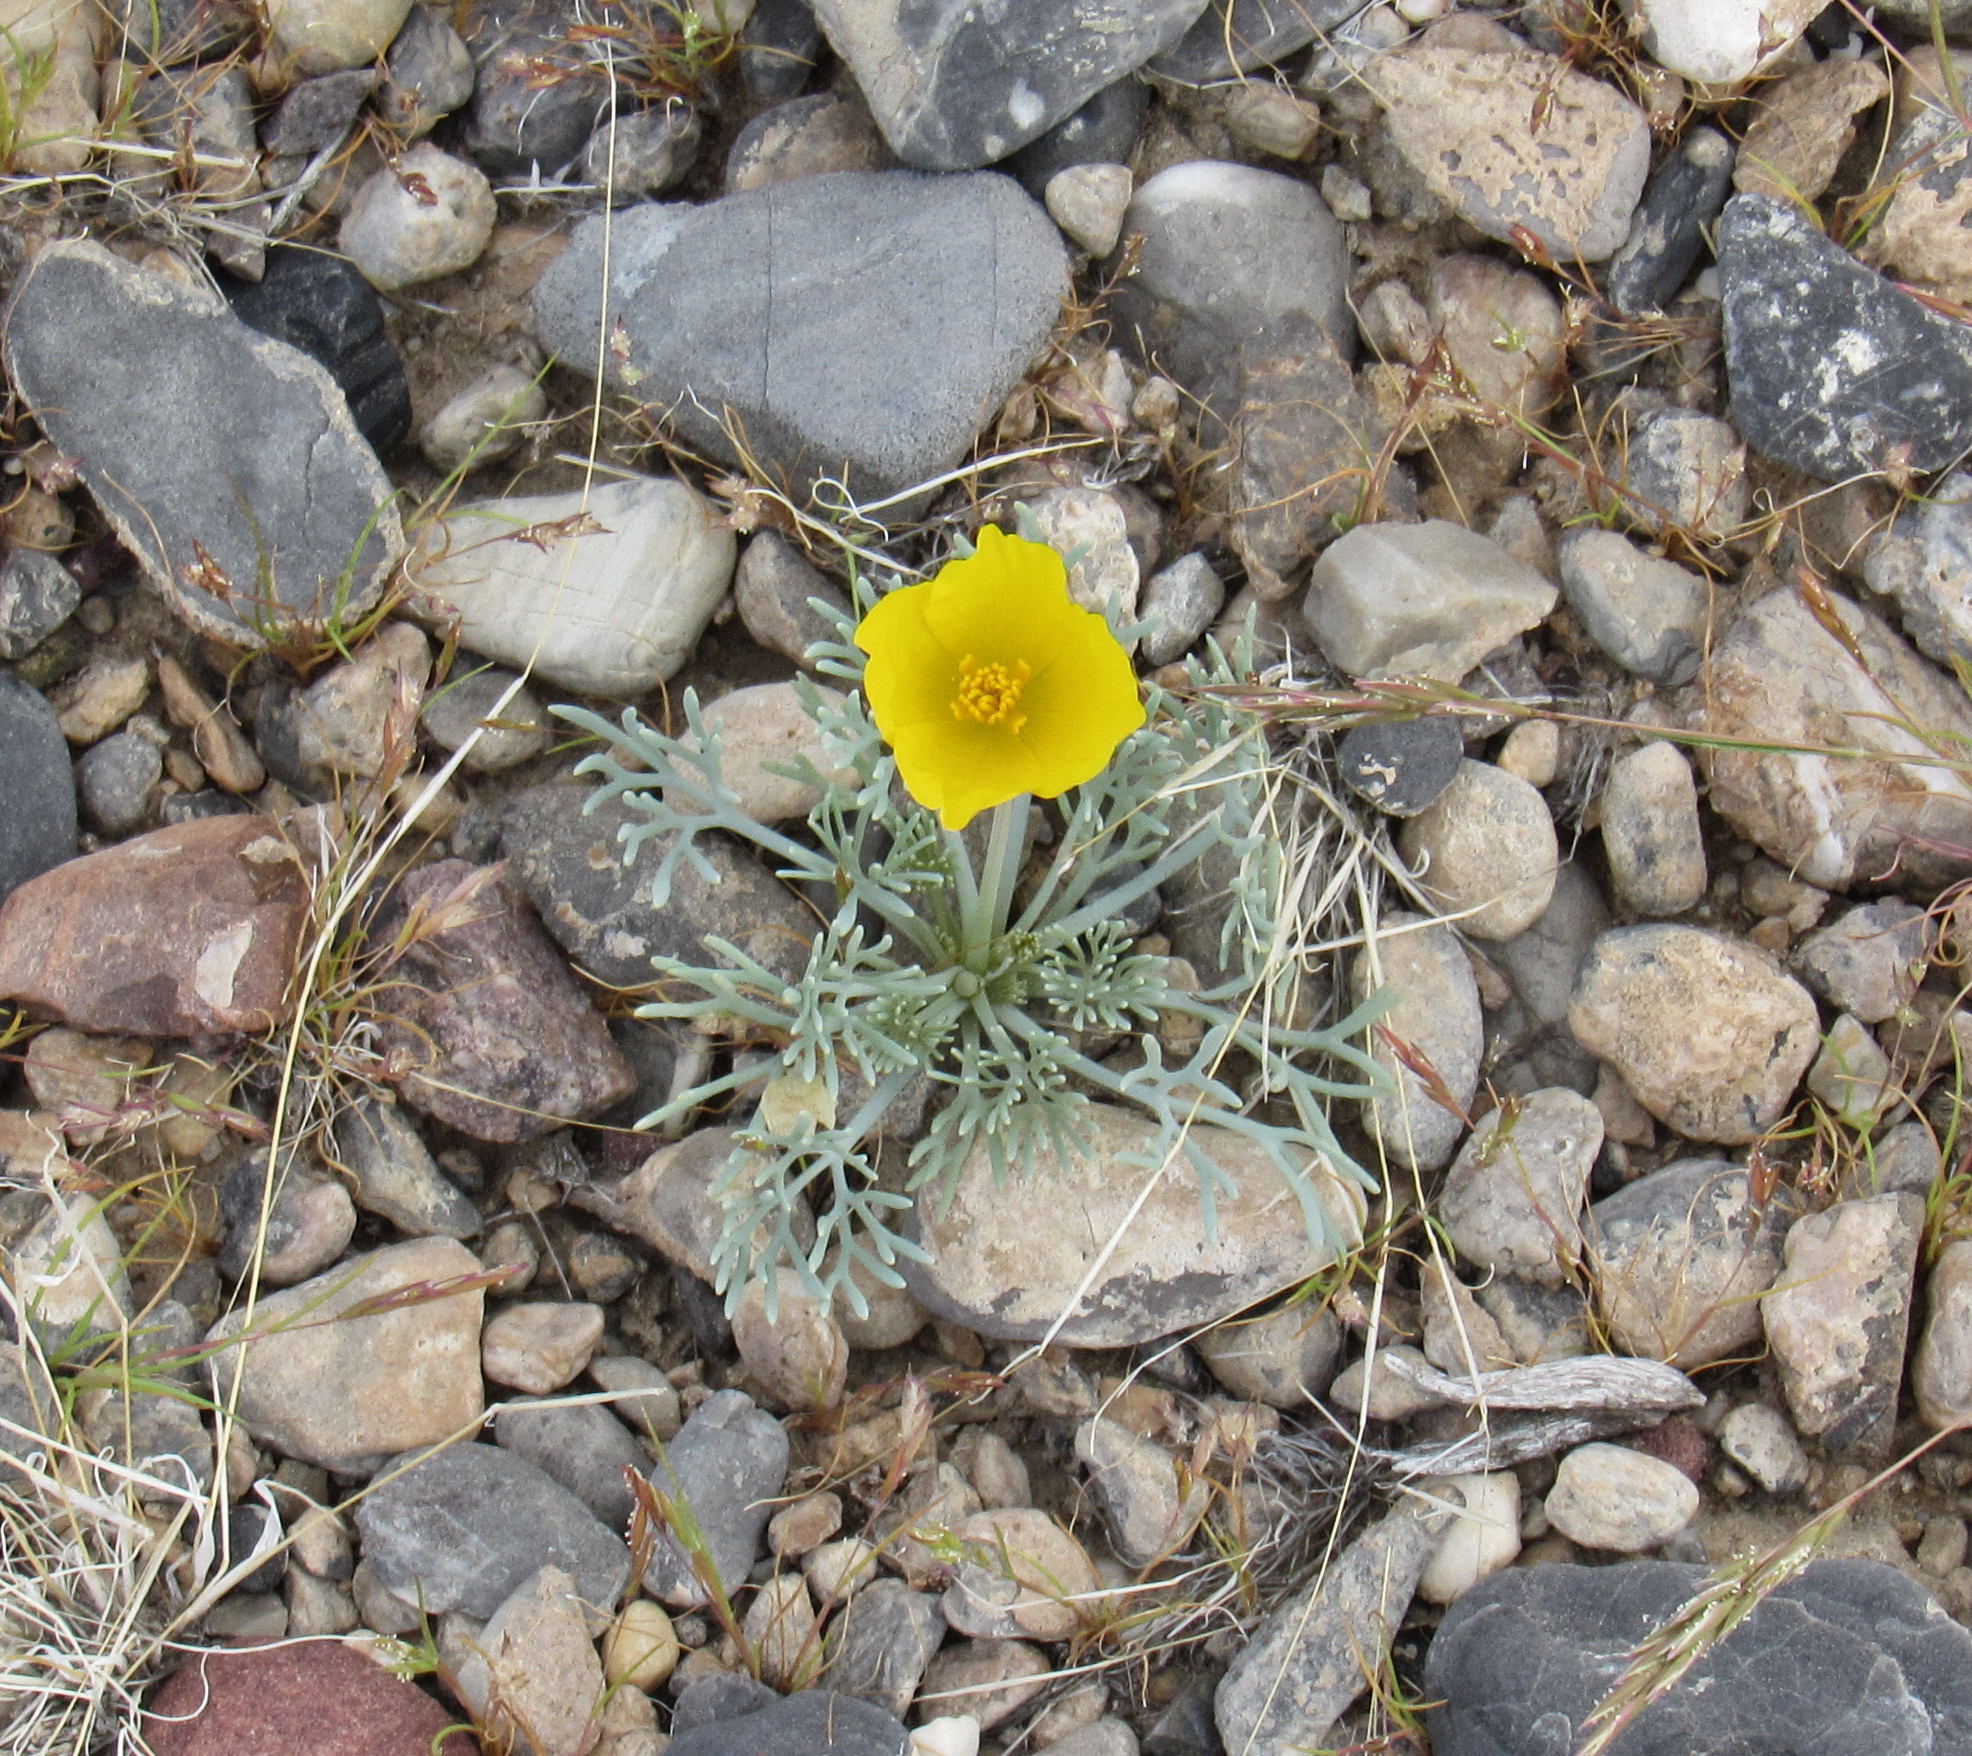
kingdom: Plantae
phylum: Tracheophyta
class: Magnoliopsida
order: Ranunculales
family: Papaveraceae
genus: Eschscholzia
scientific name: Eschscholzia glyptosperma
